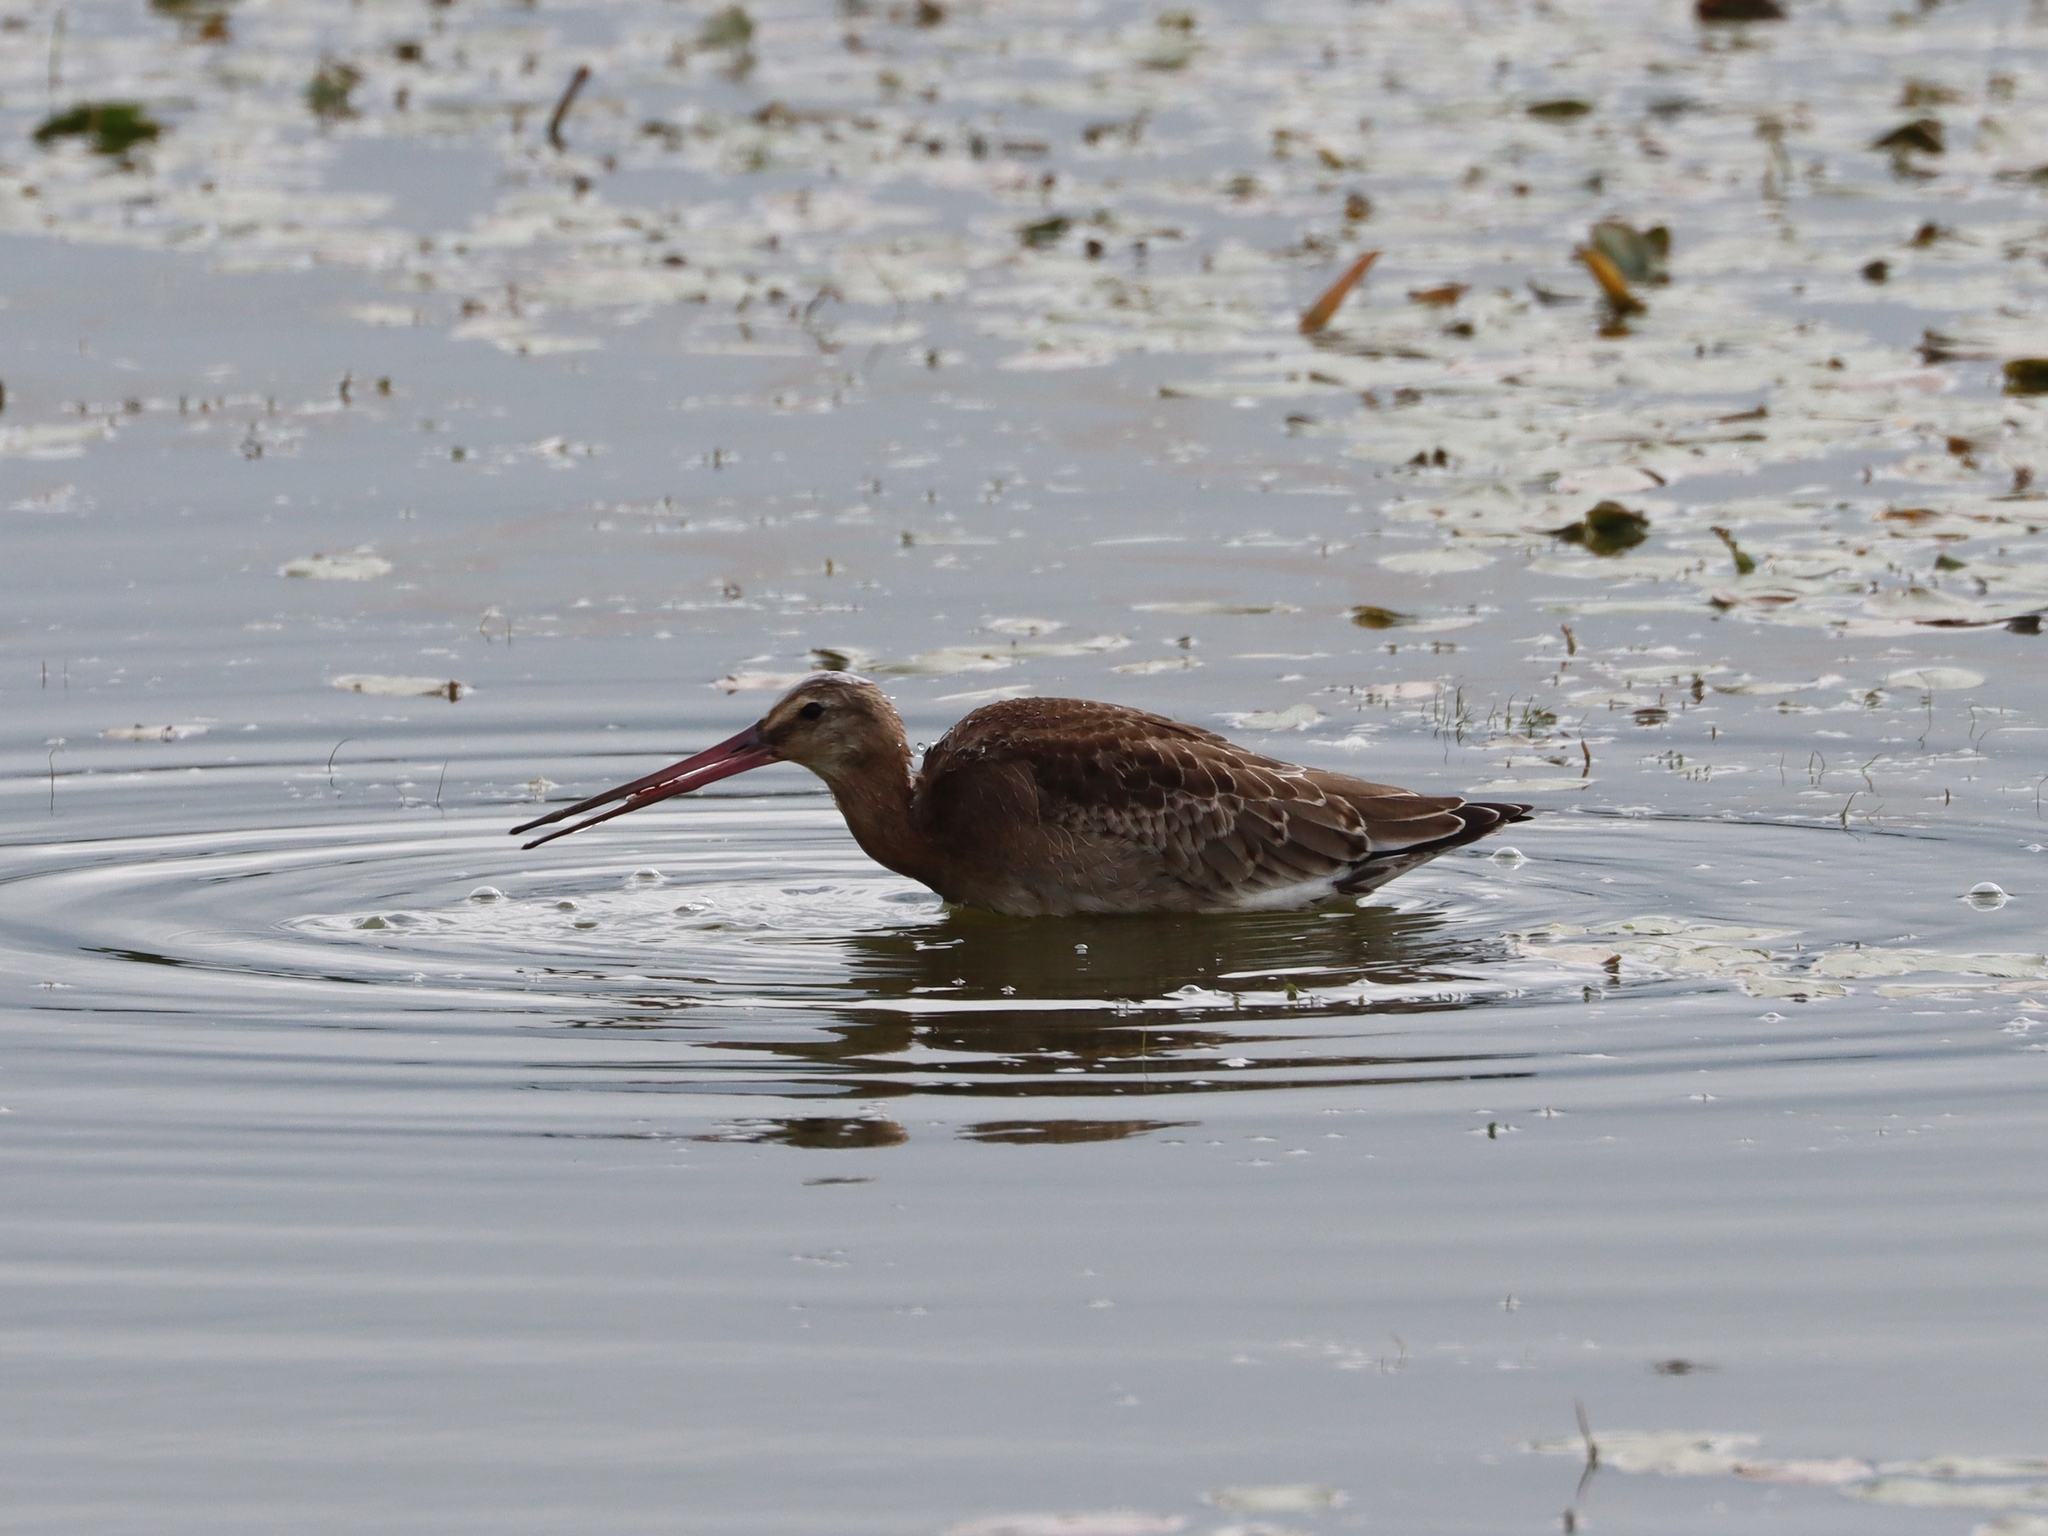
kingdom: Animalia
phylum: Chordata
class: Aves
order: Charadriiformes
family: Scolopacidae
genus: Limosa
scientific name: Limosa limosa
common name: Black-tailed godwit
